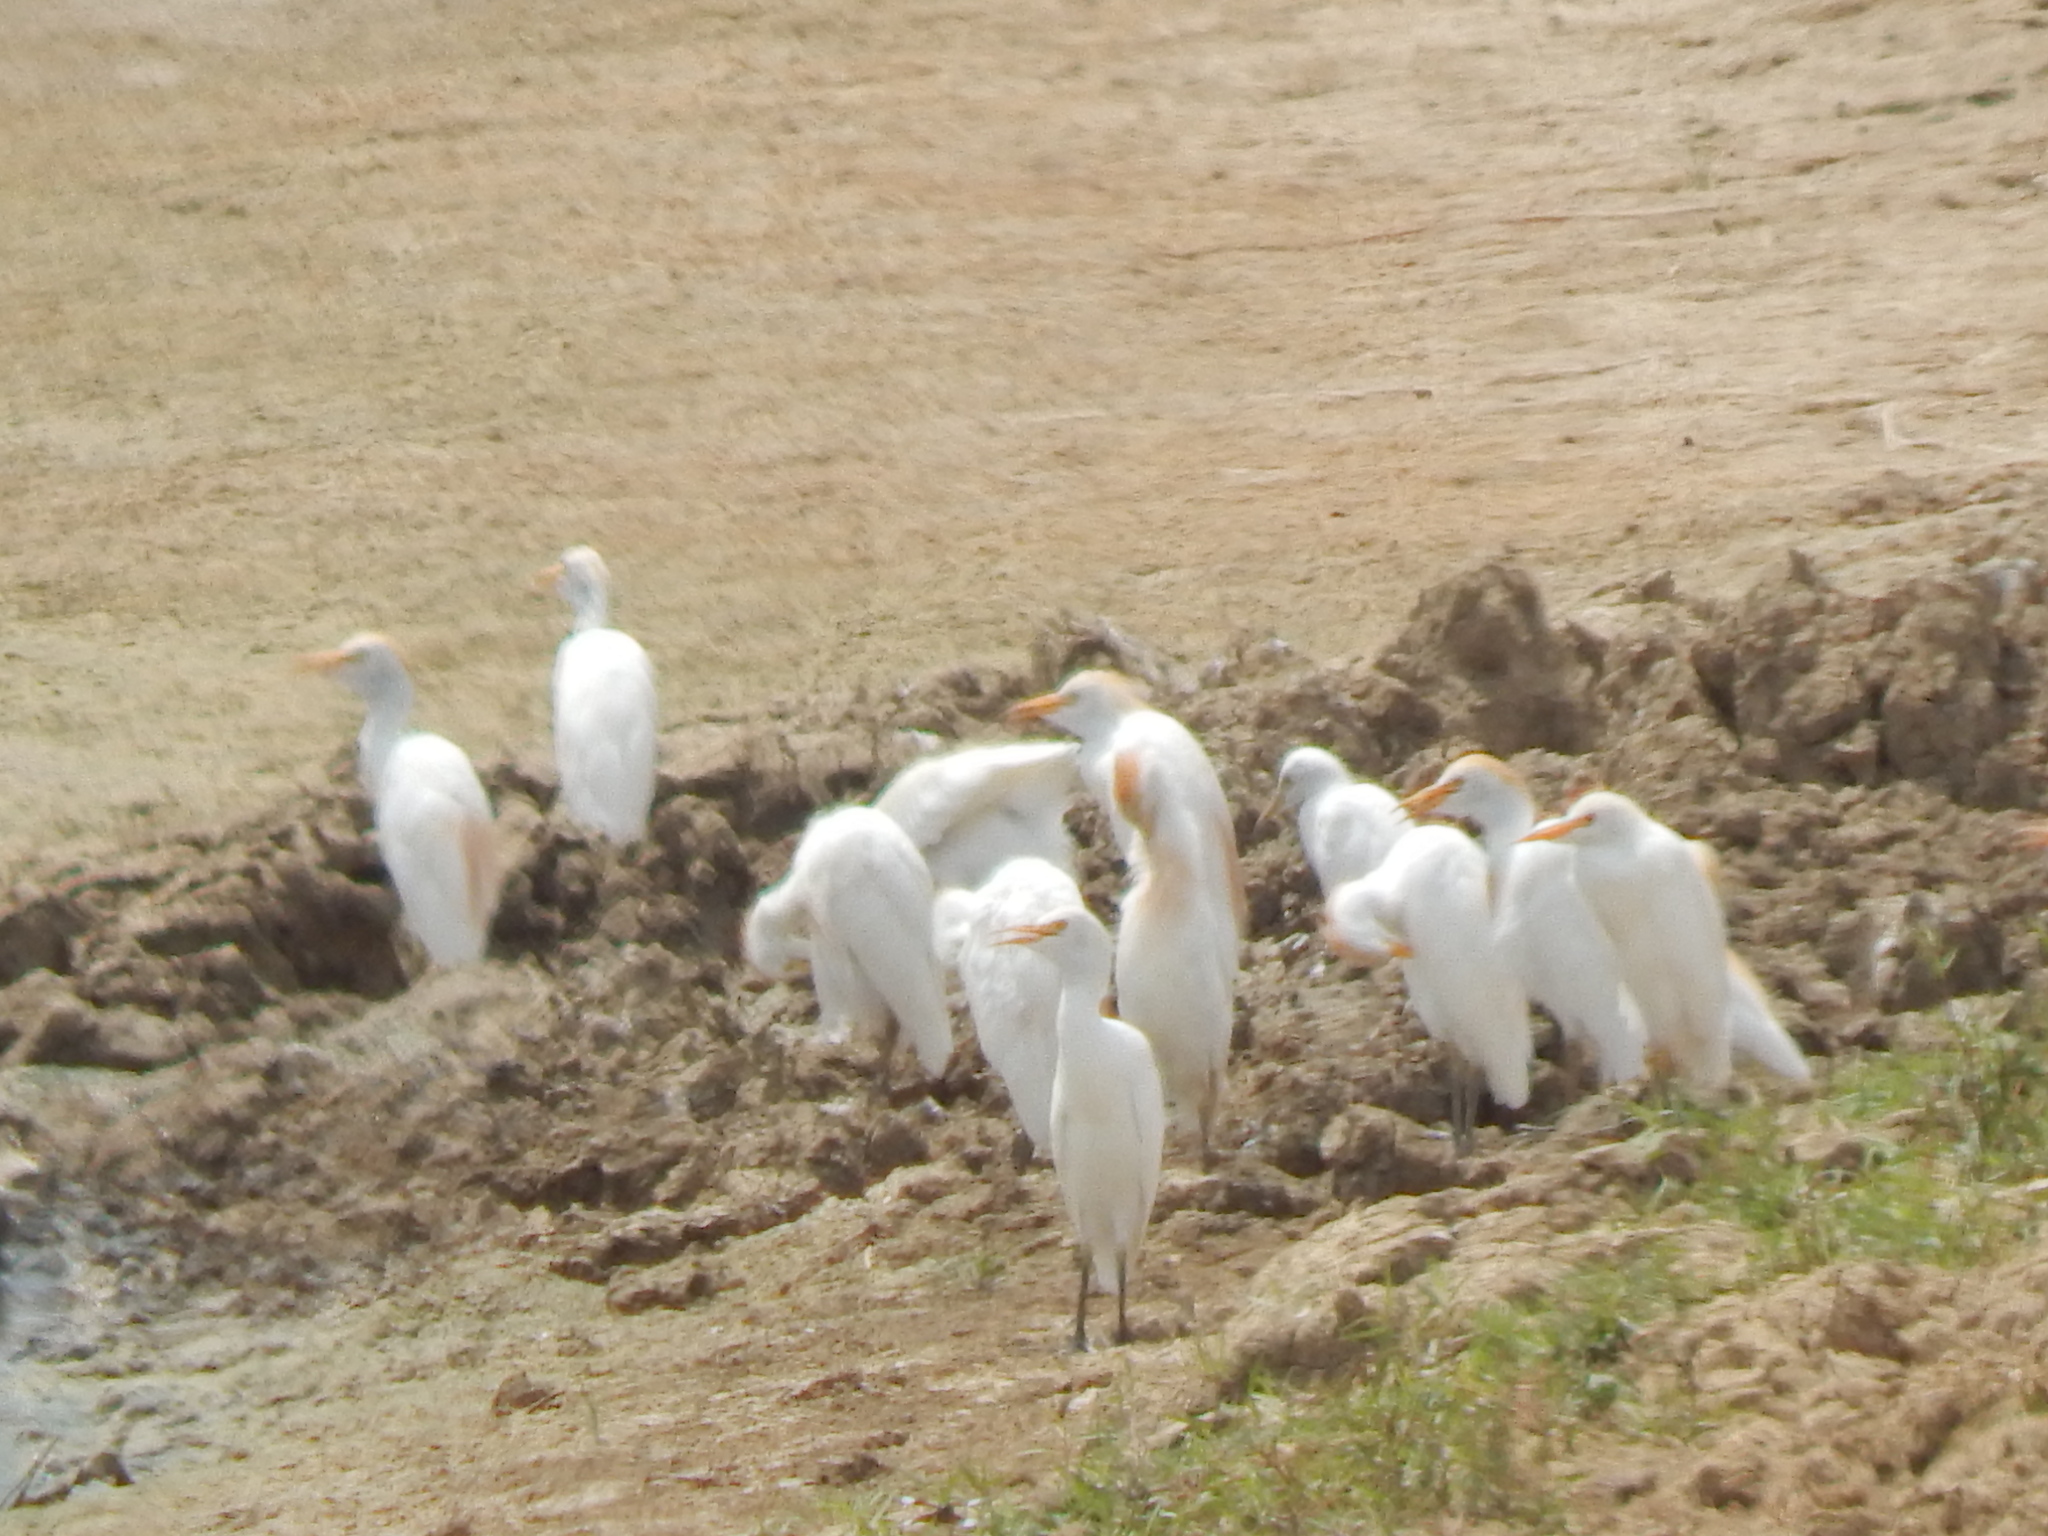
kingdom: Animalia
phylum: Chordata
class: Aves
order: Pelecaniformes
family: Ardeidae
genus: Bubulcus
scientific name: Bubulcus ibis
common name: Cattle egret
